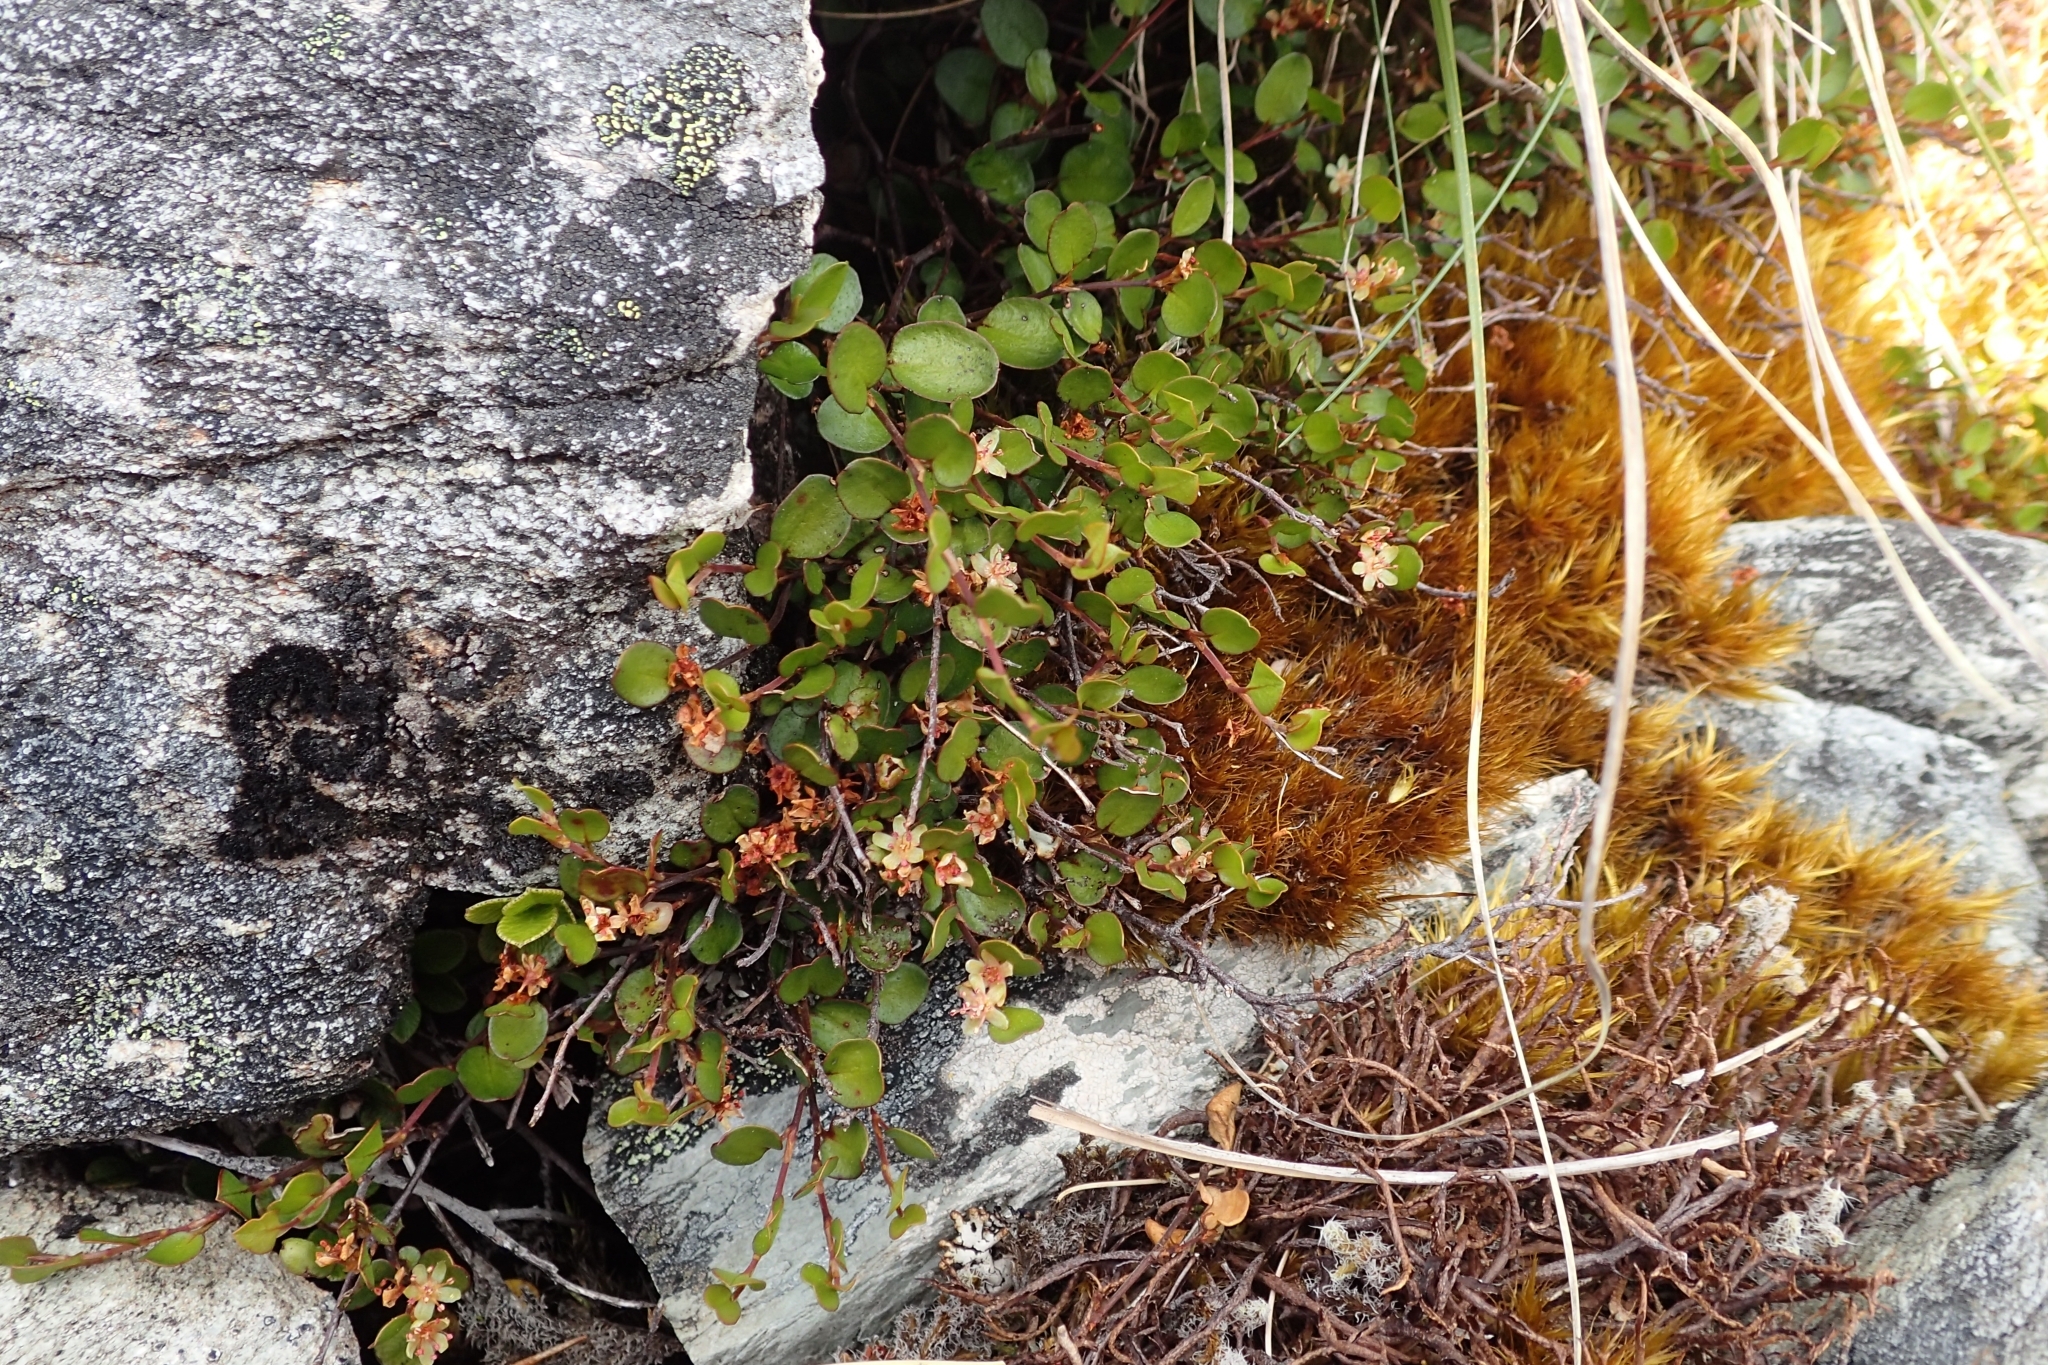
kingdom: Plantae
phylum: Tracheophyta
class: Magnoliopsida
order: Caryophyllales
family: Polygonaceae
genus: Muehlenbeckia
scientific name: Muehlenbeckia axillaris
